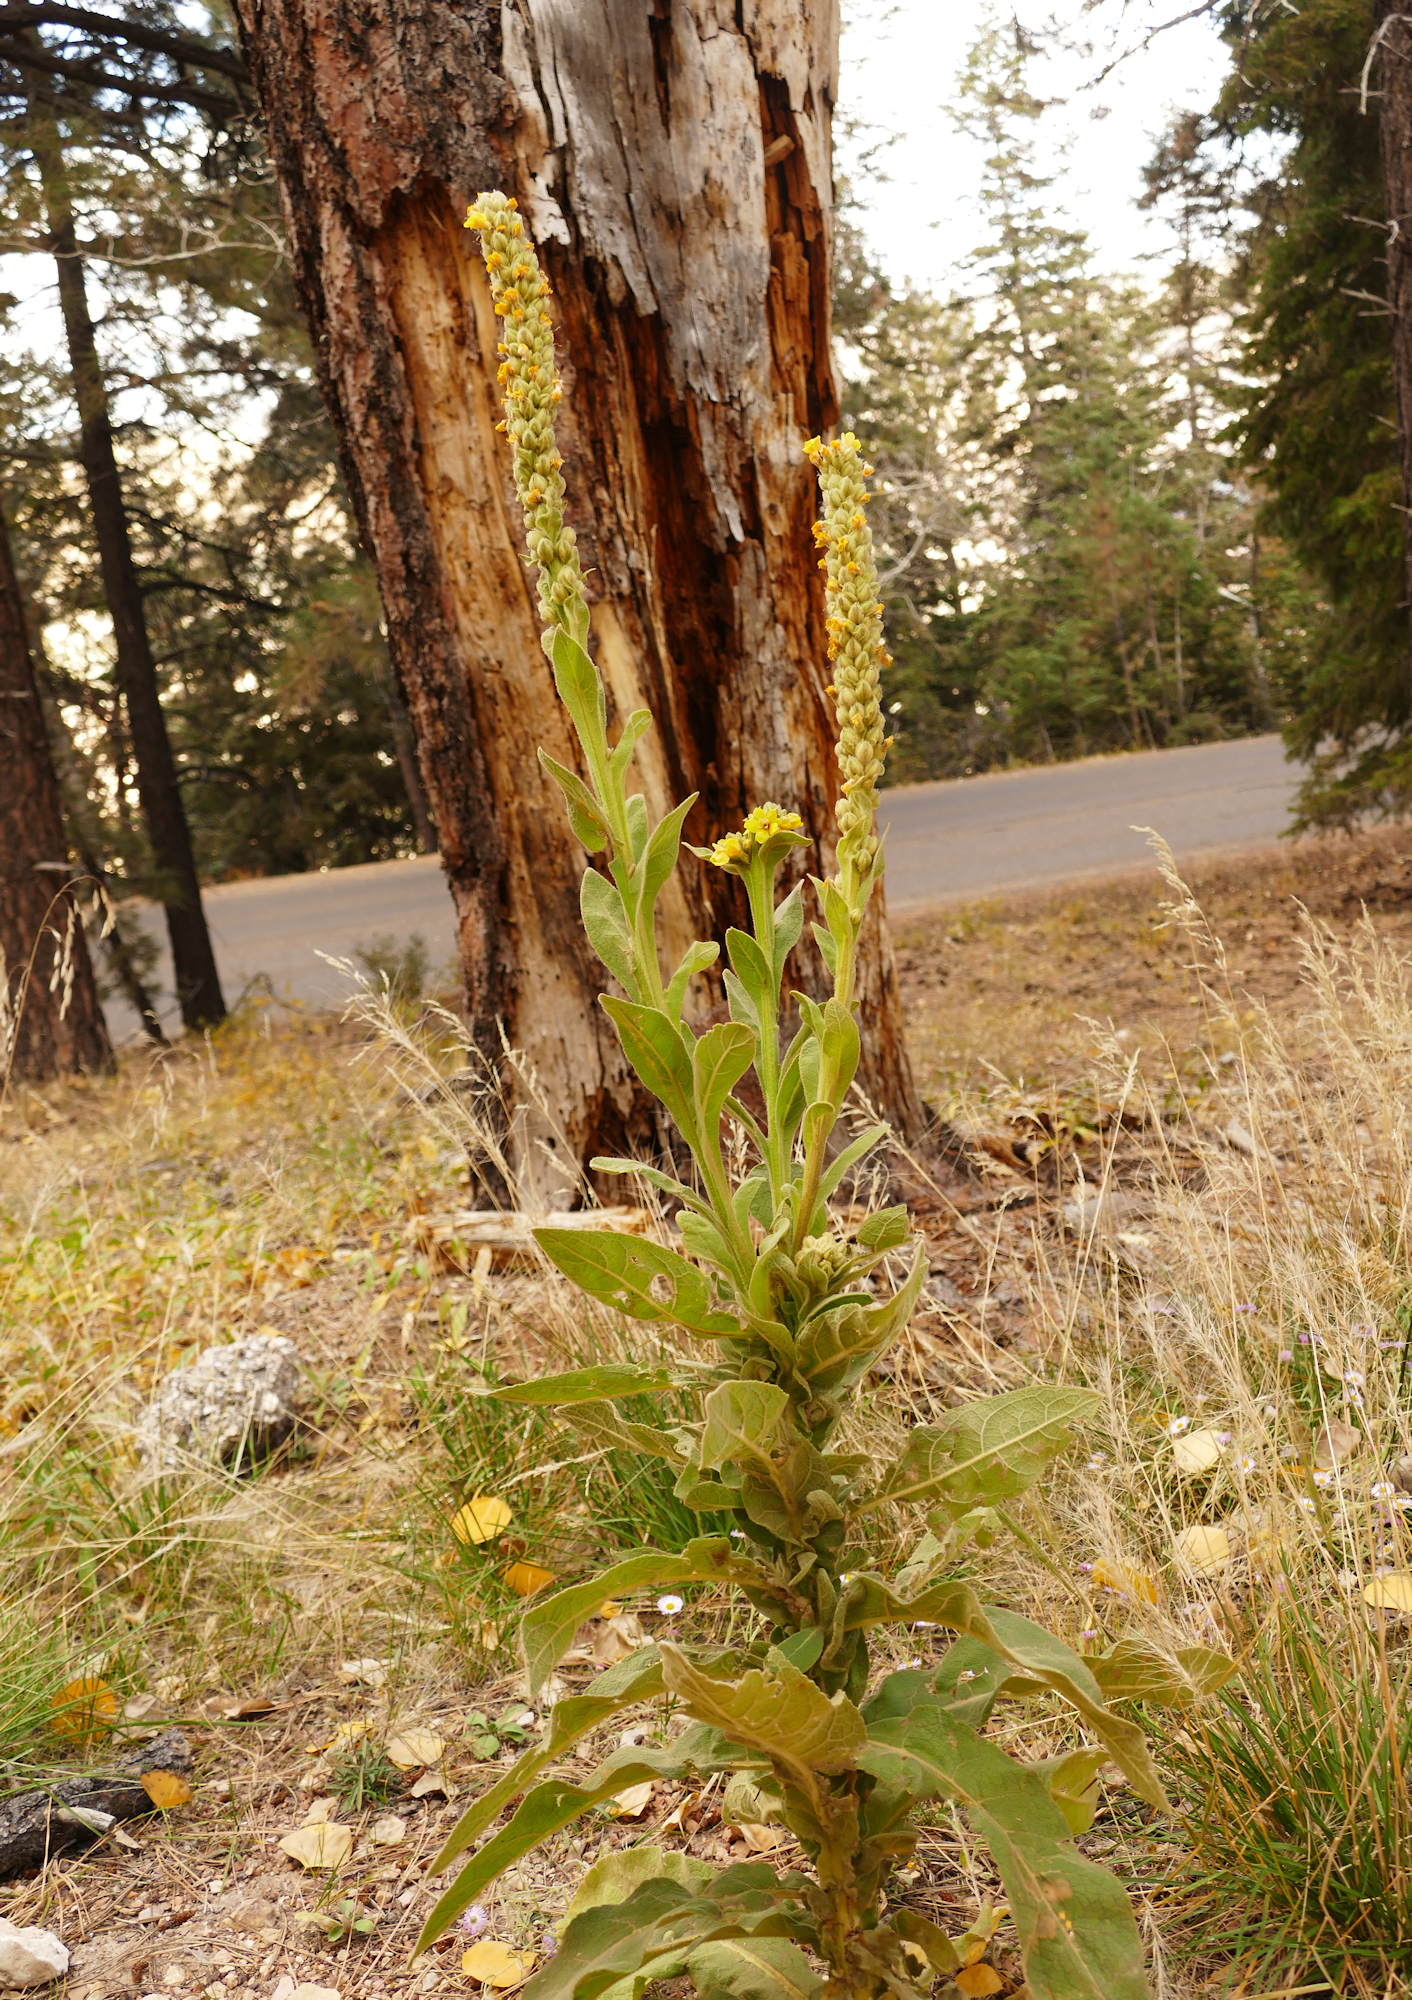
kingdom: Plantae
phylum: Tracheophyta
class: Magnoliopsida
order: Lamiales
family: Scrophulariaceae
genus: Verbascum
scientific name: Verbascum thapsus
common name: Common mullein
